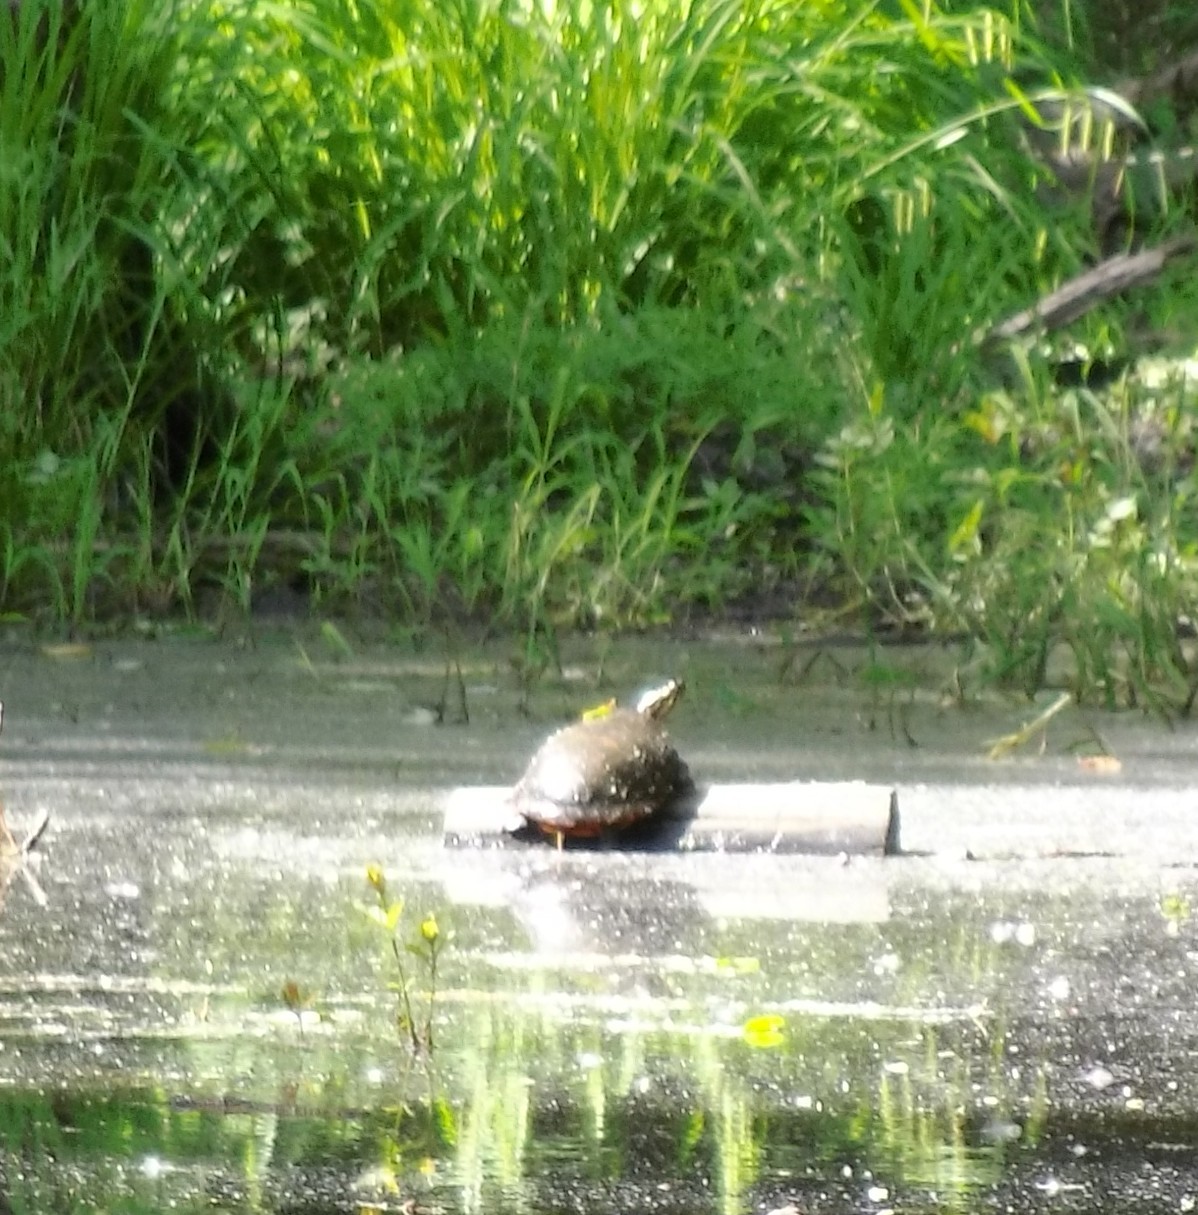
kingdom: Animalia
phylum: Chordata
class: Testudines
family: Emydidae
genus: Chrysemys
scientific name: Chrysemys picta
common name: Painted turtle
